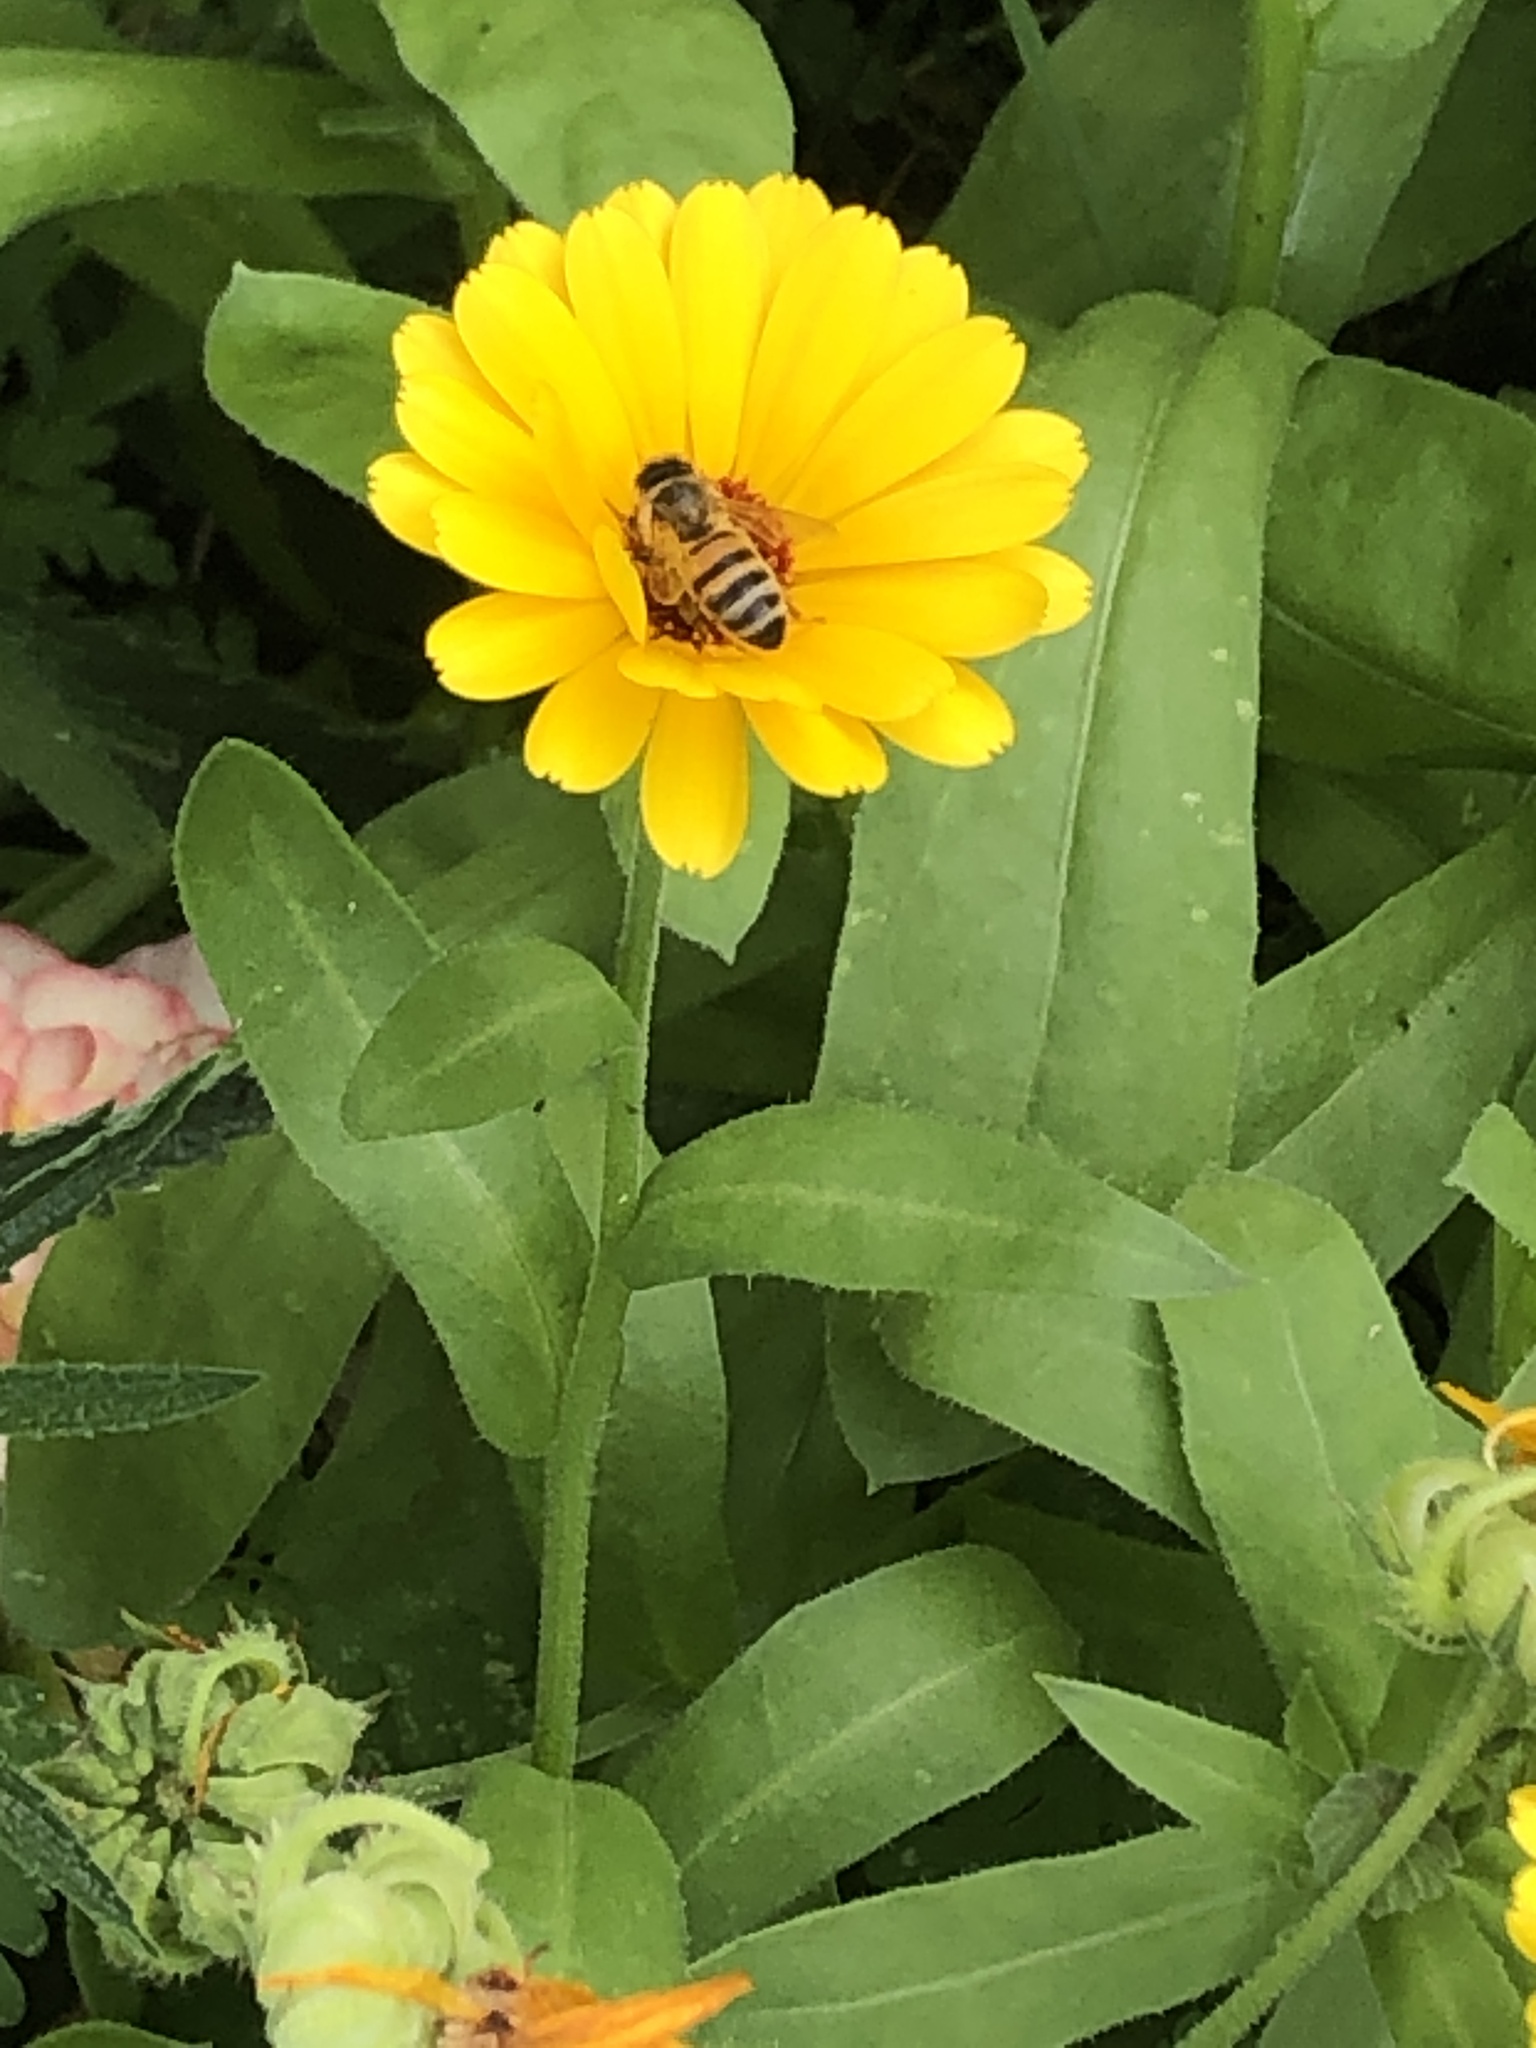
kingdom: Animalia
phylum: Arthropoda
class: Insecta
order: Hymenoptera
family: Apidae
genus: Apis
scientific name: Apis mellifera
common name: Honey bee
